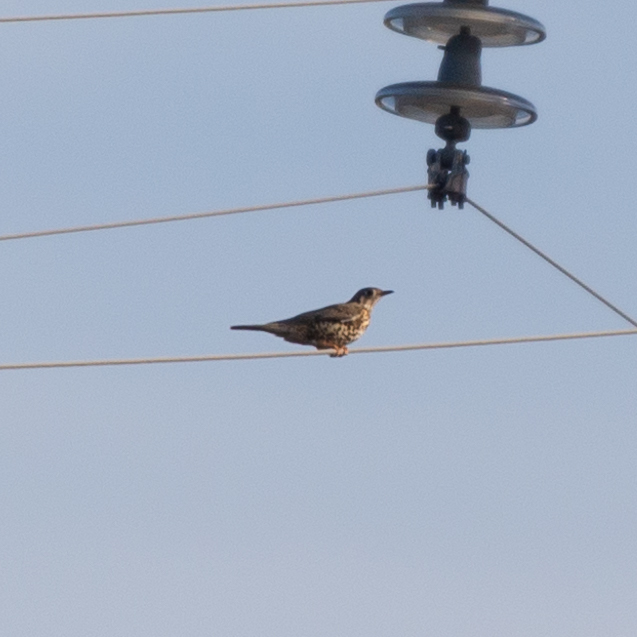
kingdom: Animalia
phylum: Chordata
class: Aves
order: Passeriformes
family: Turdidae
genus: Turdus
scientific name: Turdus viscivorus
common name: Mistle thrush
